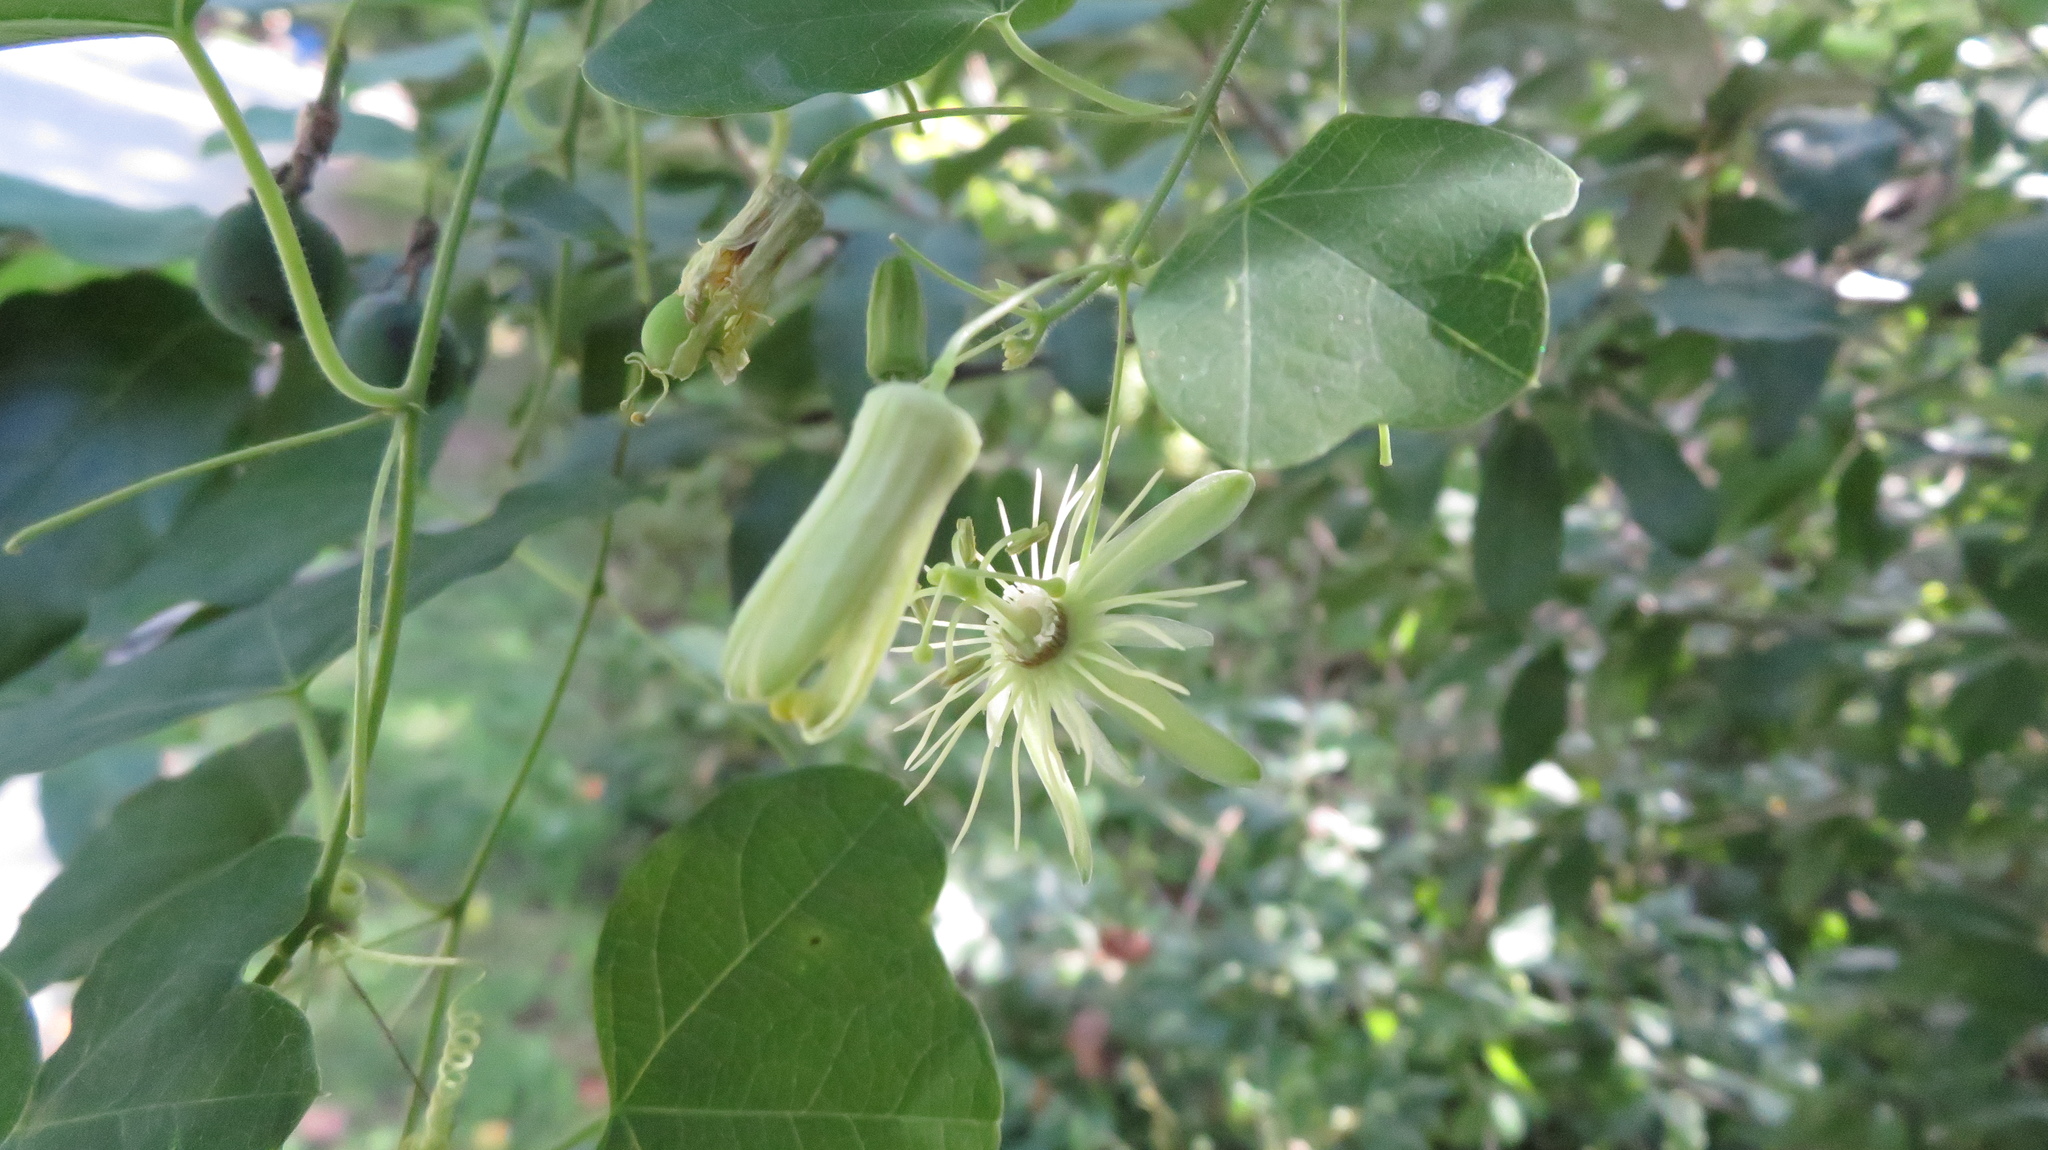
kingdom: Plantae
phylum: Tracheophyta
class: Magnoliopsida
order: Malpighiales
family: Passifloraceae
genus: Passiflora
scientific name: Passiflora lutea
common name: Yellow passionflower
